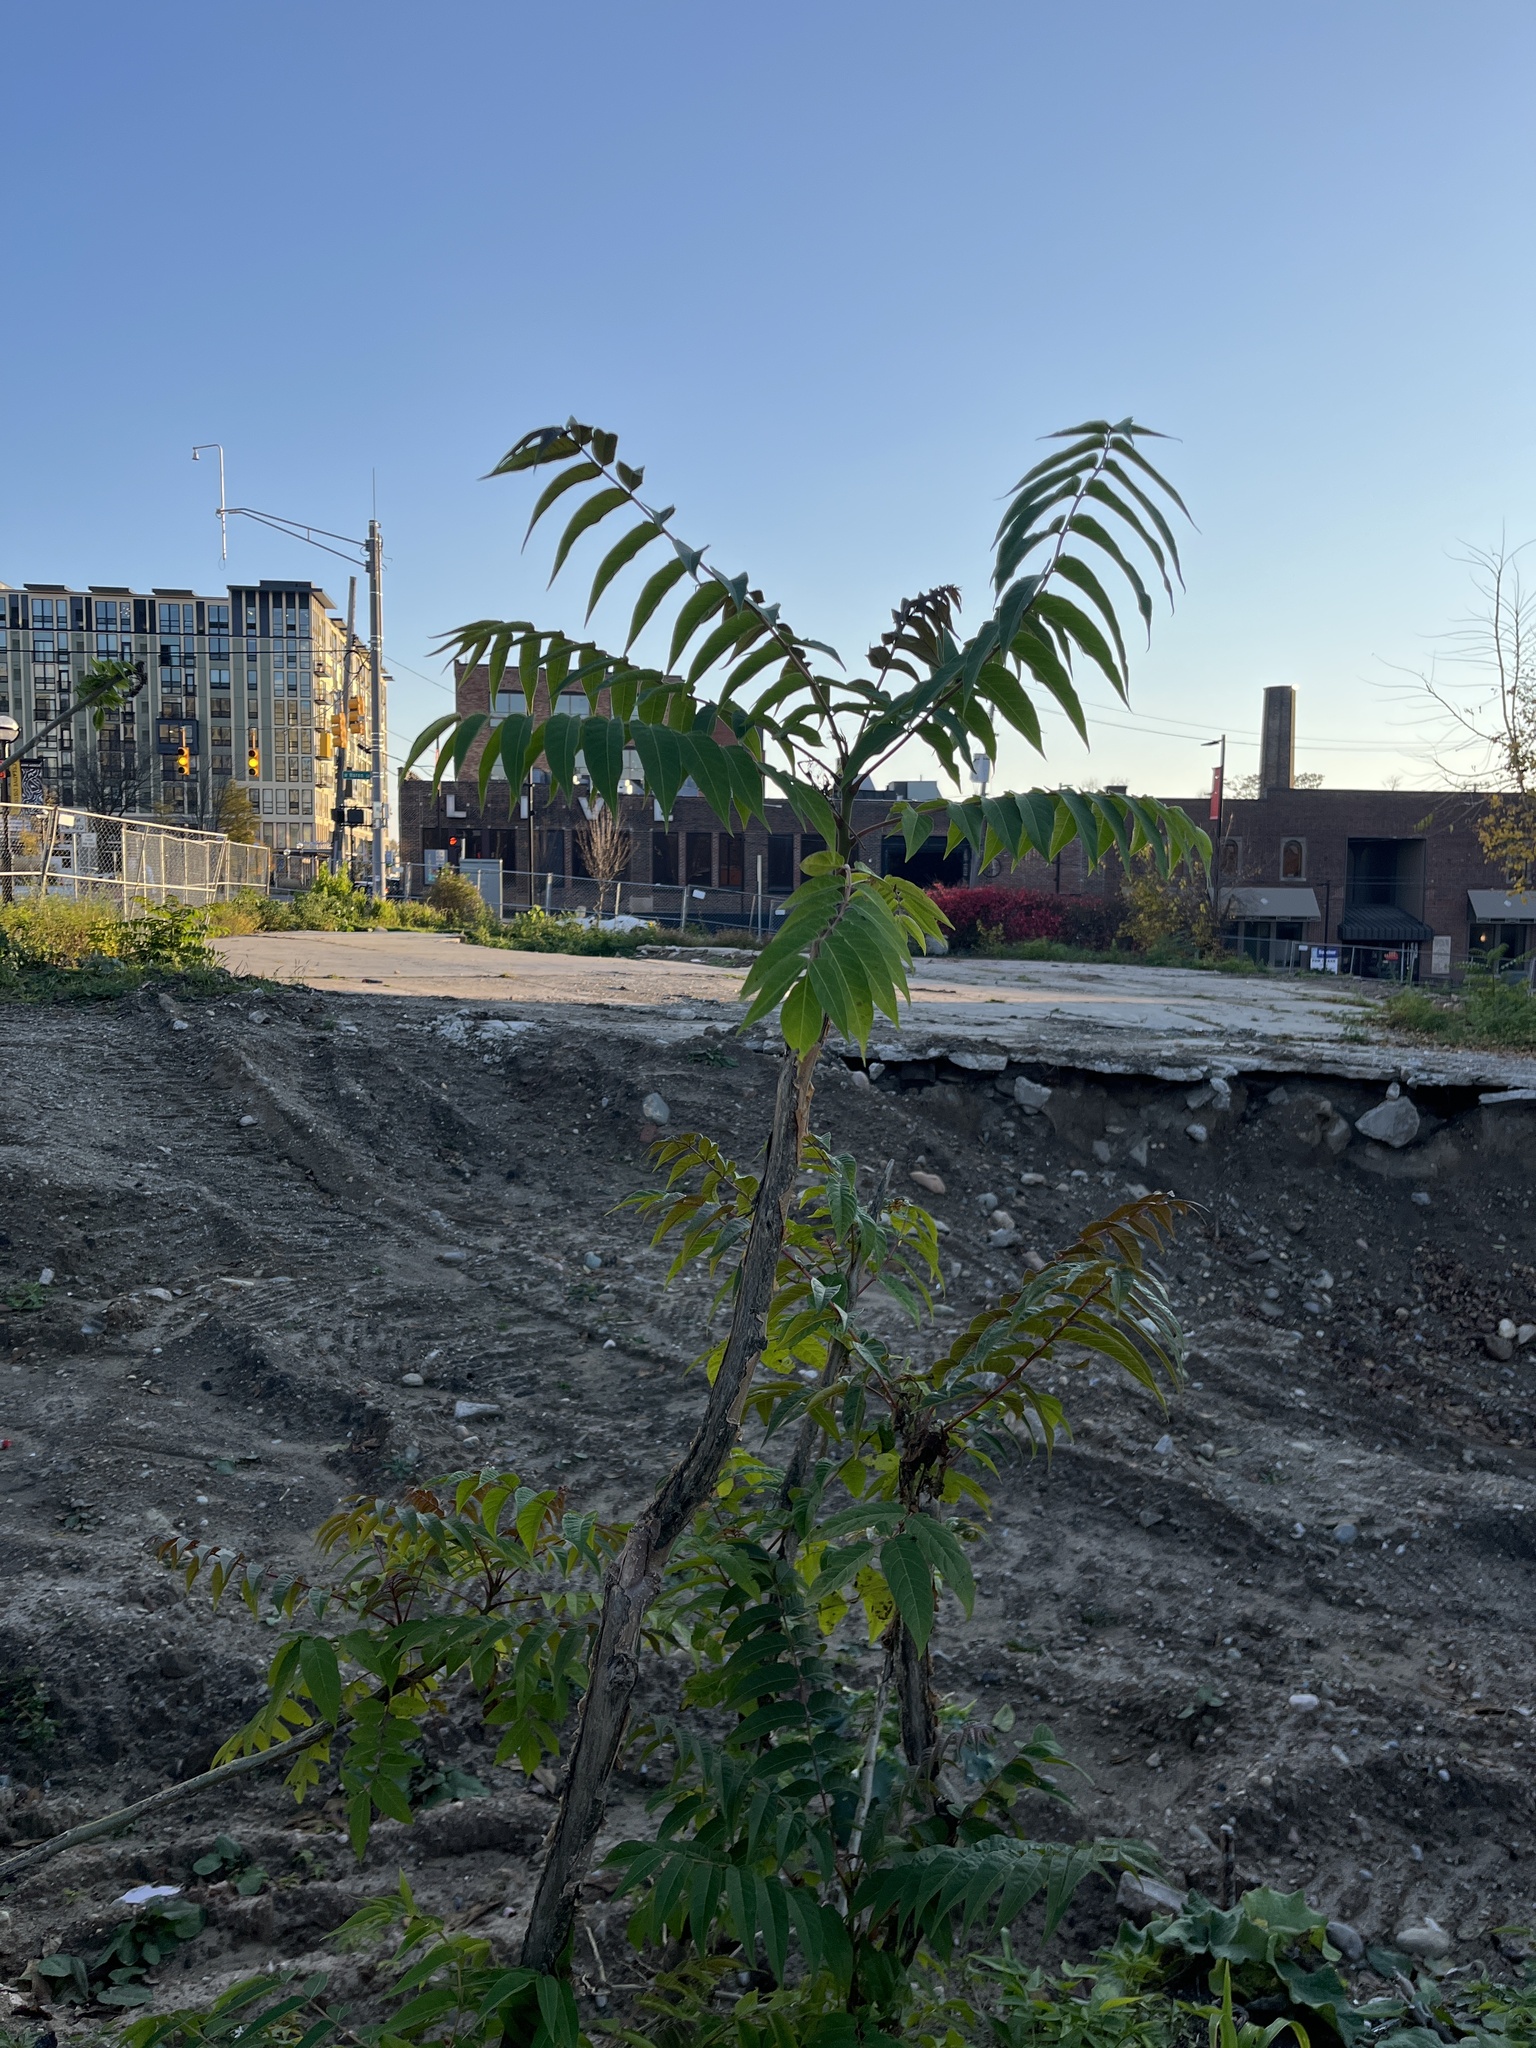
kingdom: Plantae
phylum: Tracheophyta
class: Magnoliopsida
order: Sapindales
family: Simaroubaceae
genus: Ailanthus
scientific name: Ailanthus altissima
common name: Tree-of-heaven
